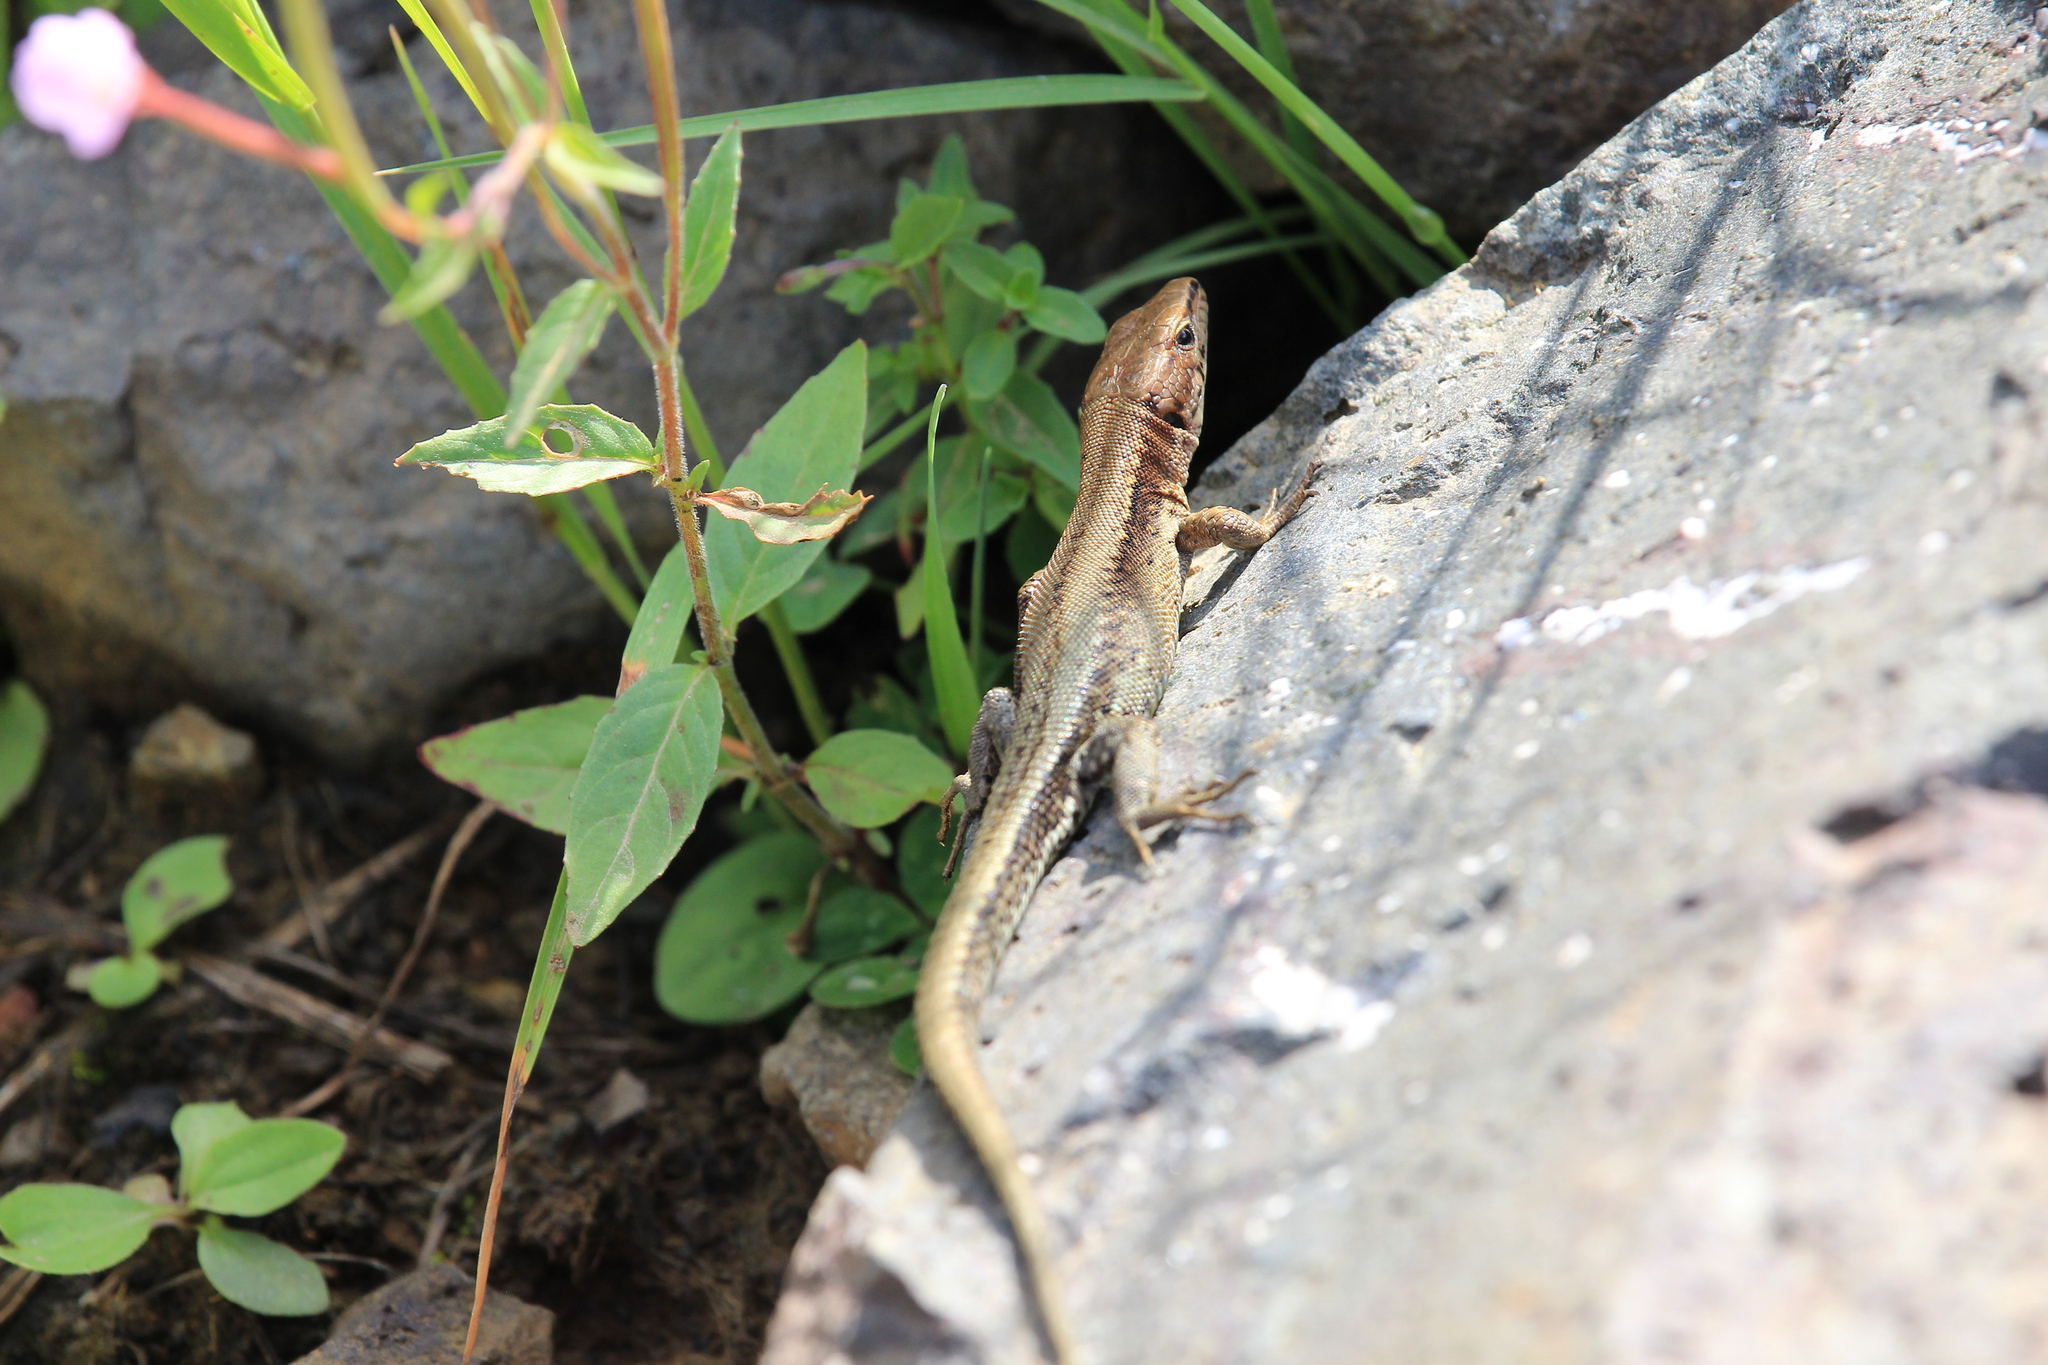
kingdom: Animalia
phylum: Chordata
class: Squamata
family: Lacertidae
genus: Darevskia
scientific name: Darevskia derjugini
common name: Derjugin's lizard
